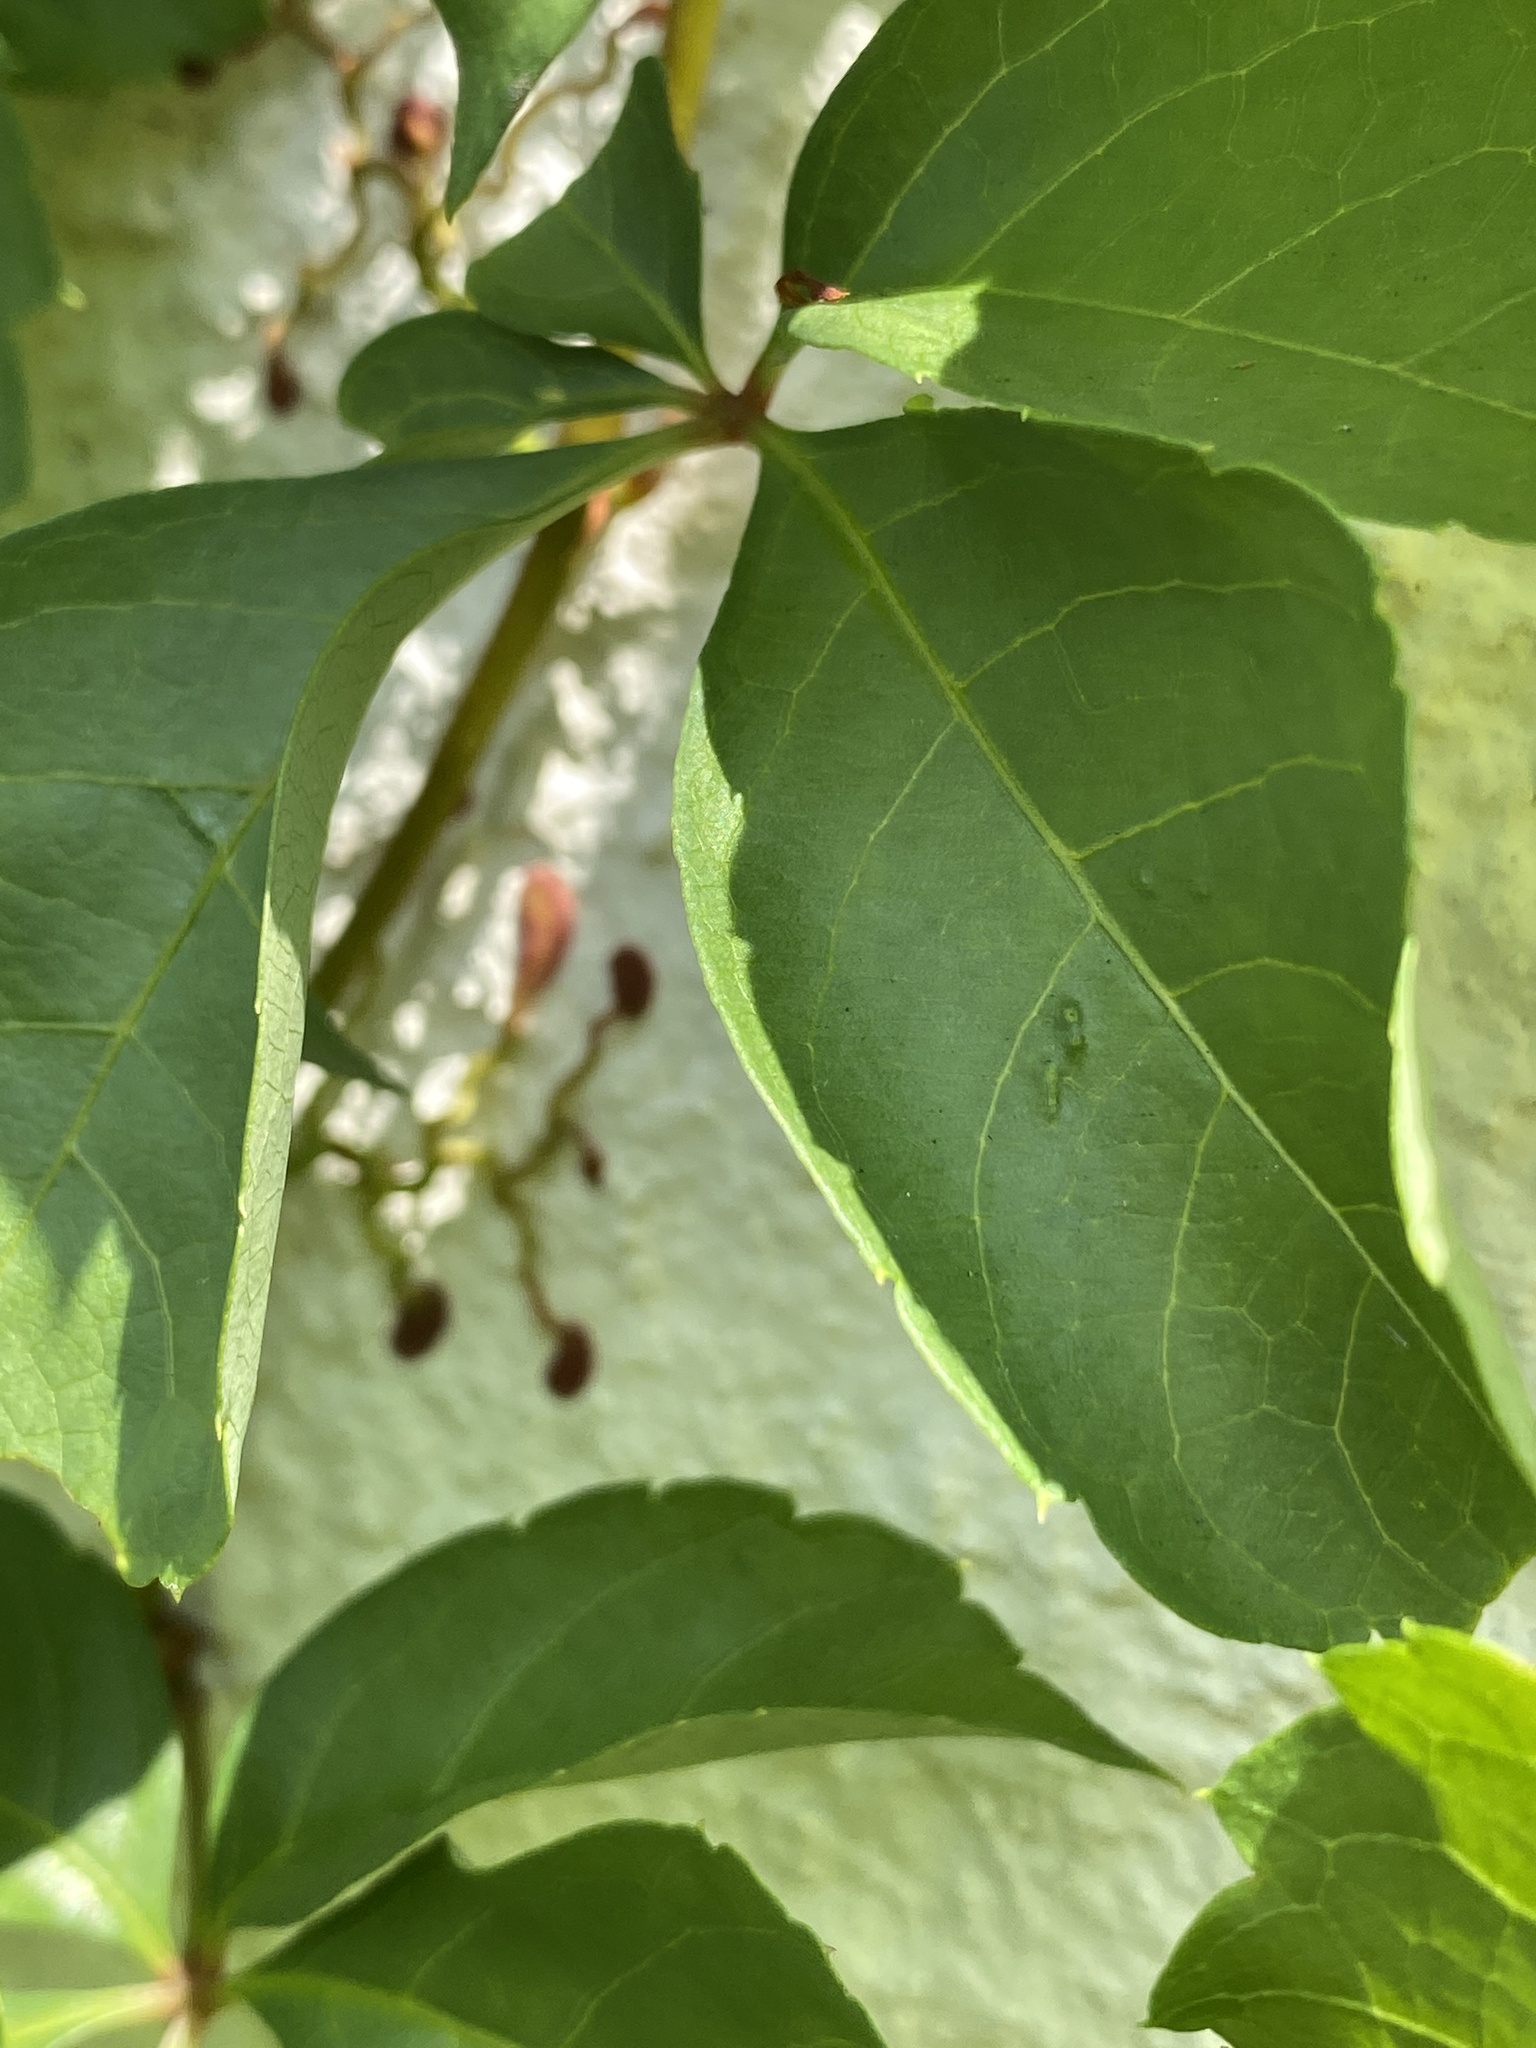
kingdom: Plantae
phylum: Tracheophyta
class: Magnoliopsida
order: Vitales
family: Vitaceae
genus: Parthenocissus
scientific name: Parthenocissus quinquefolia
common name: Virginia-creeper
